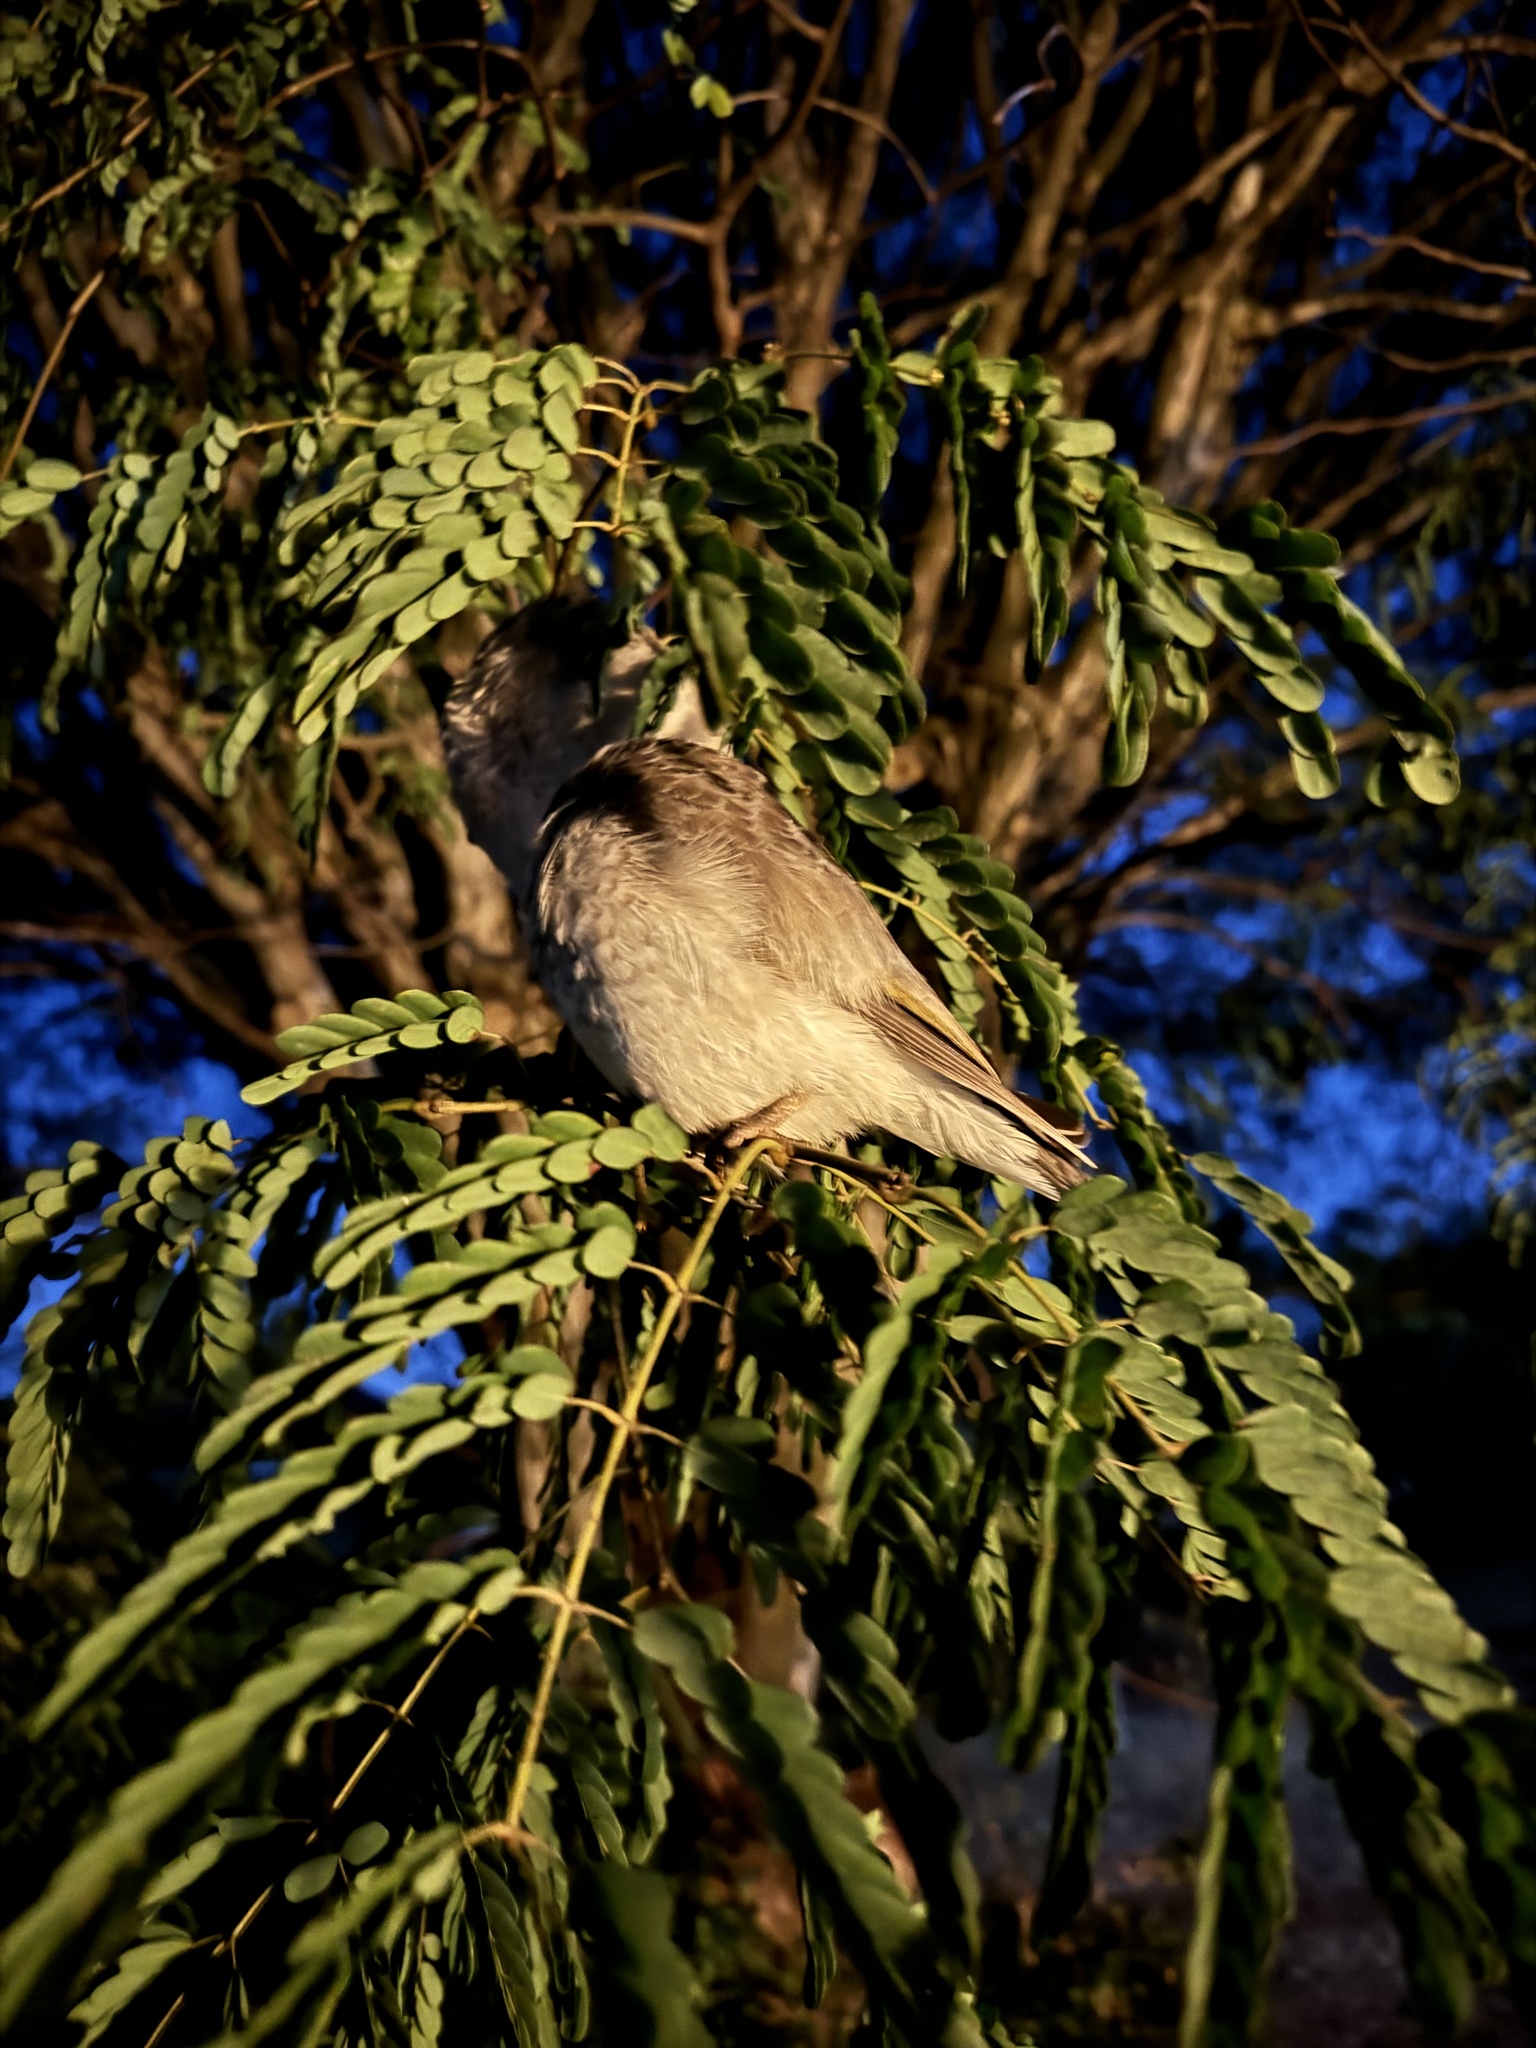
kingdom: Animalia
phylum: Chordata
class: Aves
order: Passeriformes
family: Meliphagidae
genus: Manorina
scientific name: Manorina melanocephala
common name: Noisy miner
